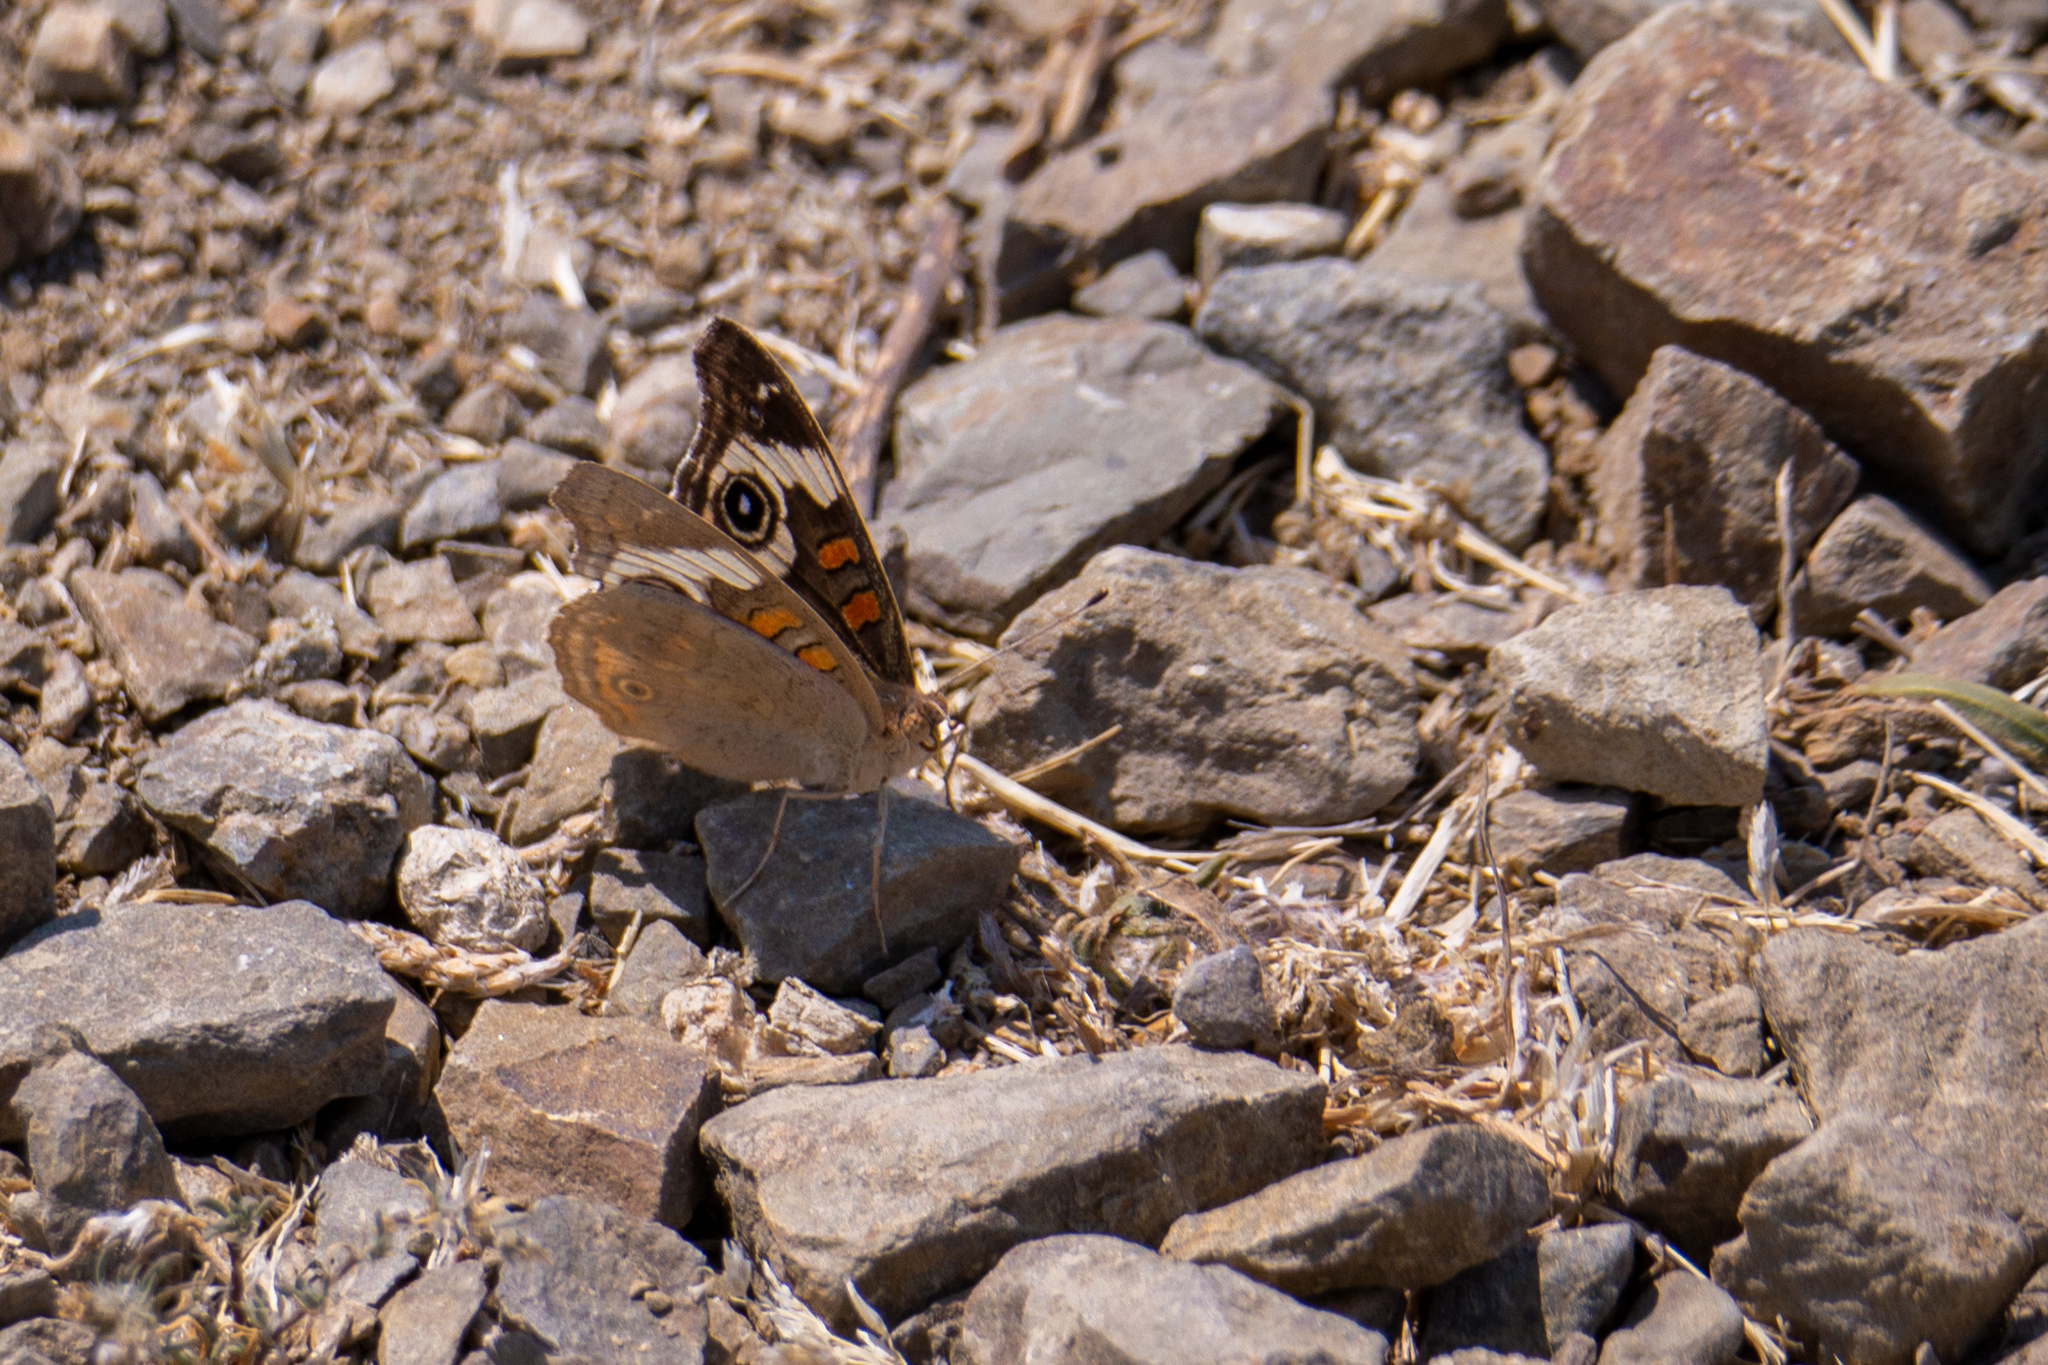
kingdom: Animalia
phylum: Arthropoda
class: Insecta
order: Lepidoptera
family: Nymphalidae
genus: Junonia
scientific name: Junonia grisea
